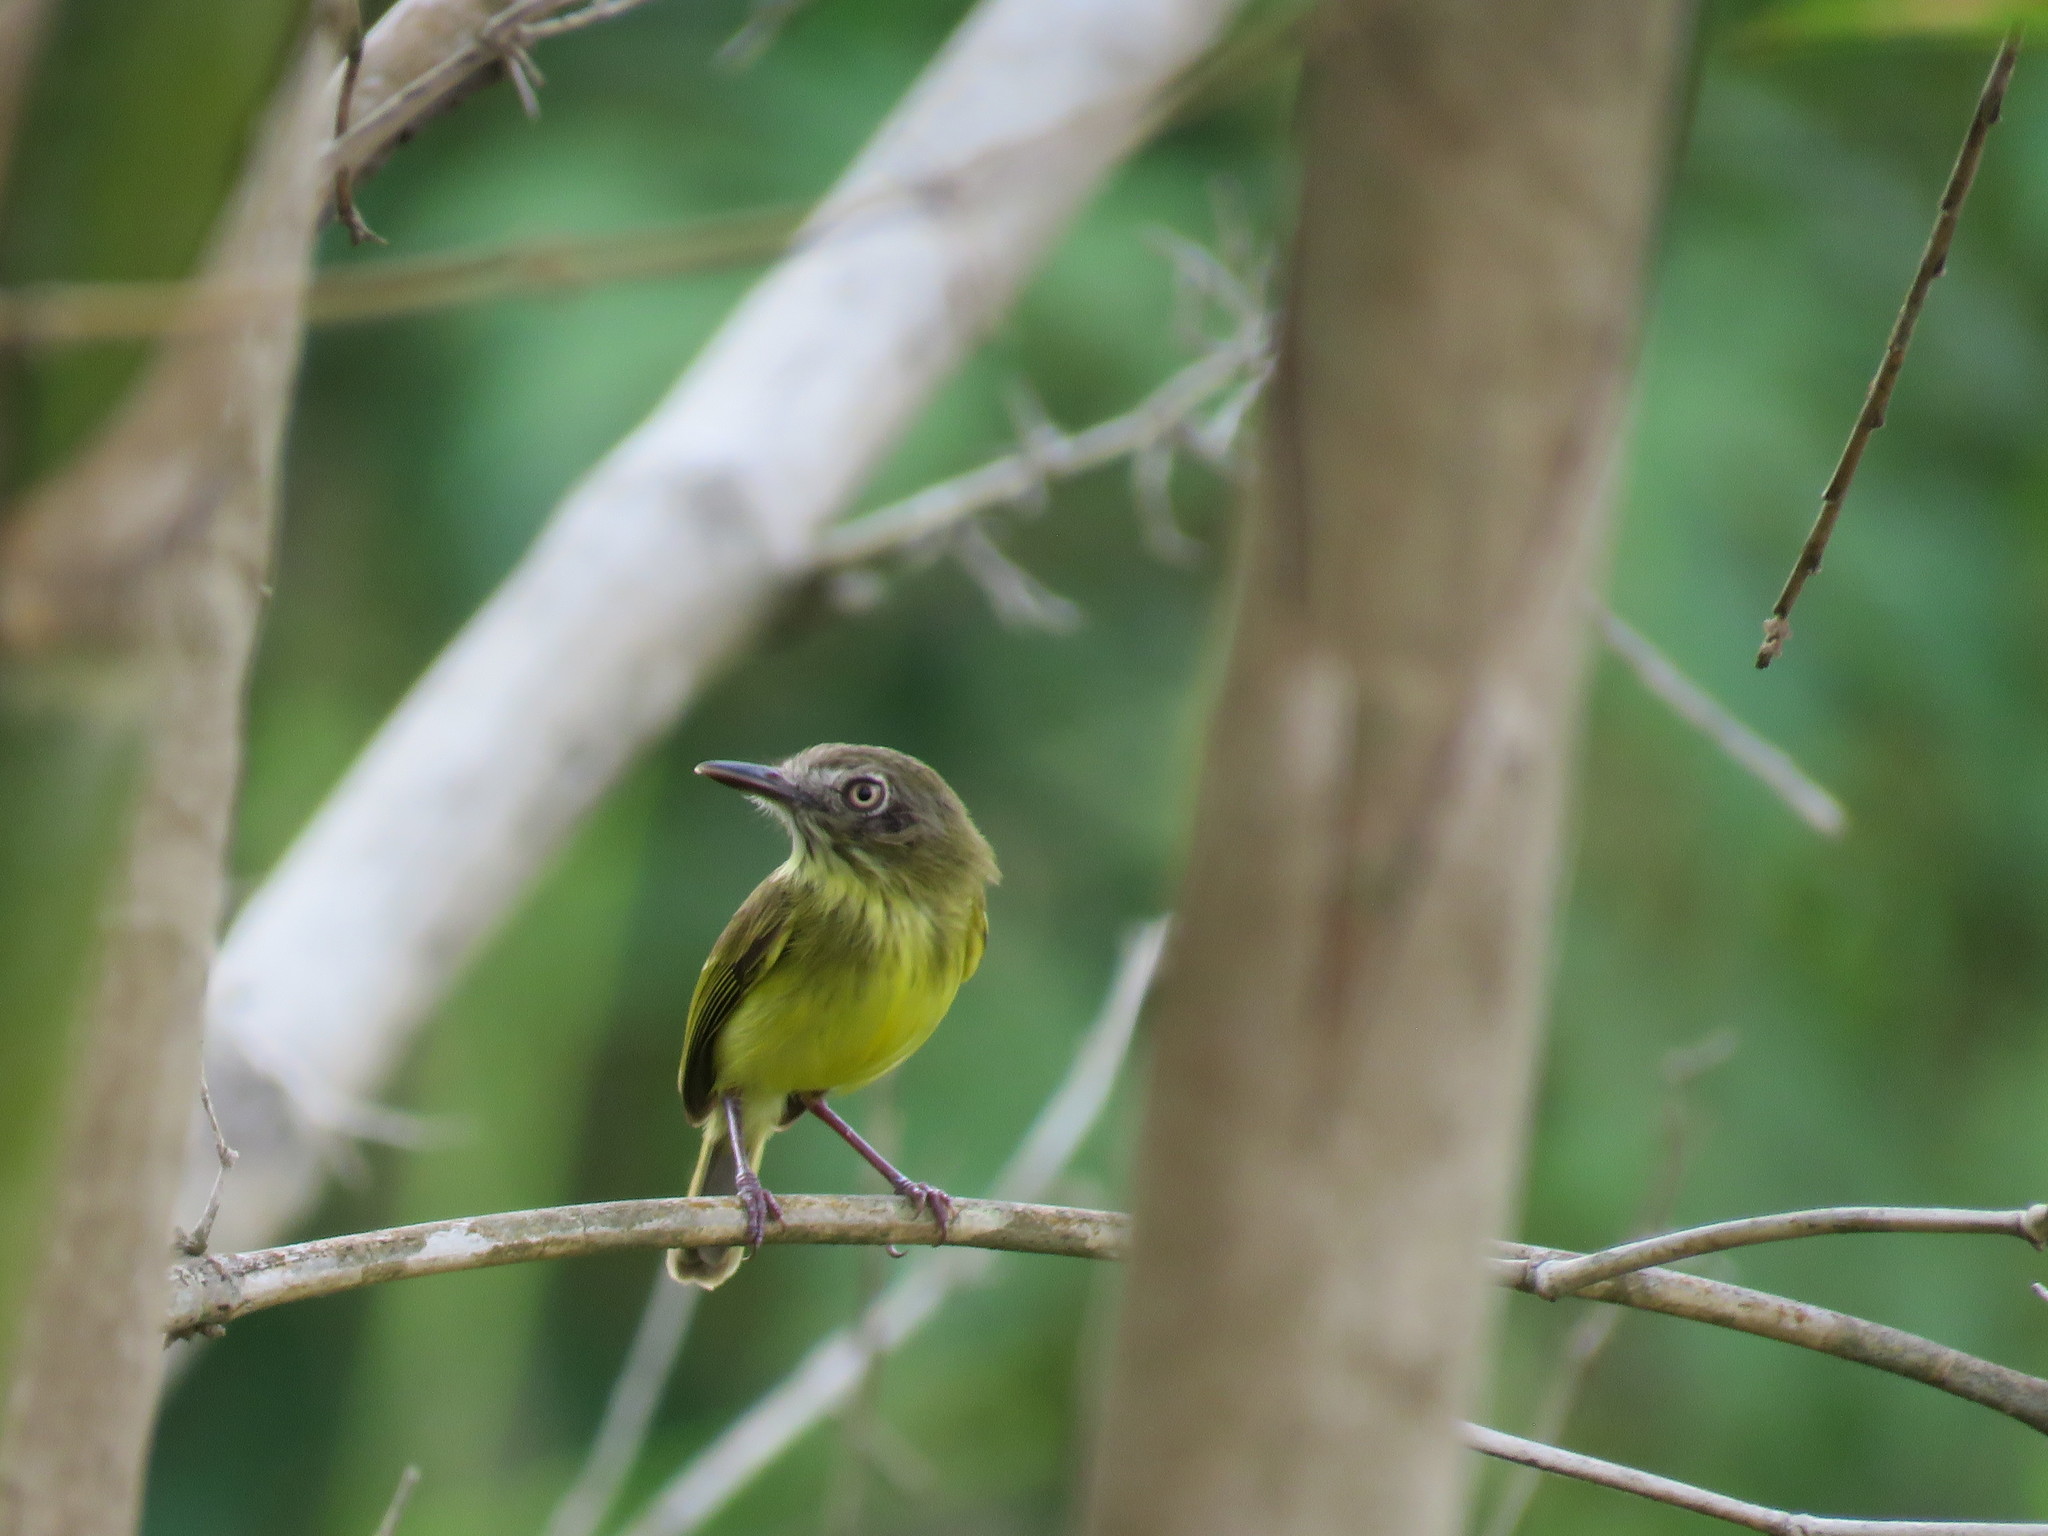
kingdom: Animalia
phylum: Chordata
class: Aves
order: Passeriformes
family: Tyrannidae
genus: Hemitriccus
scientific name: Hemitriccus iohannis
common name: Johannes's tody-tyrant
